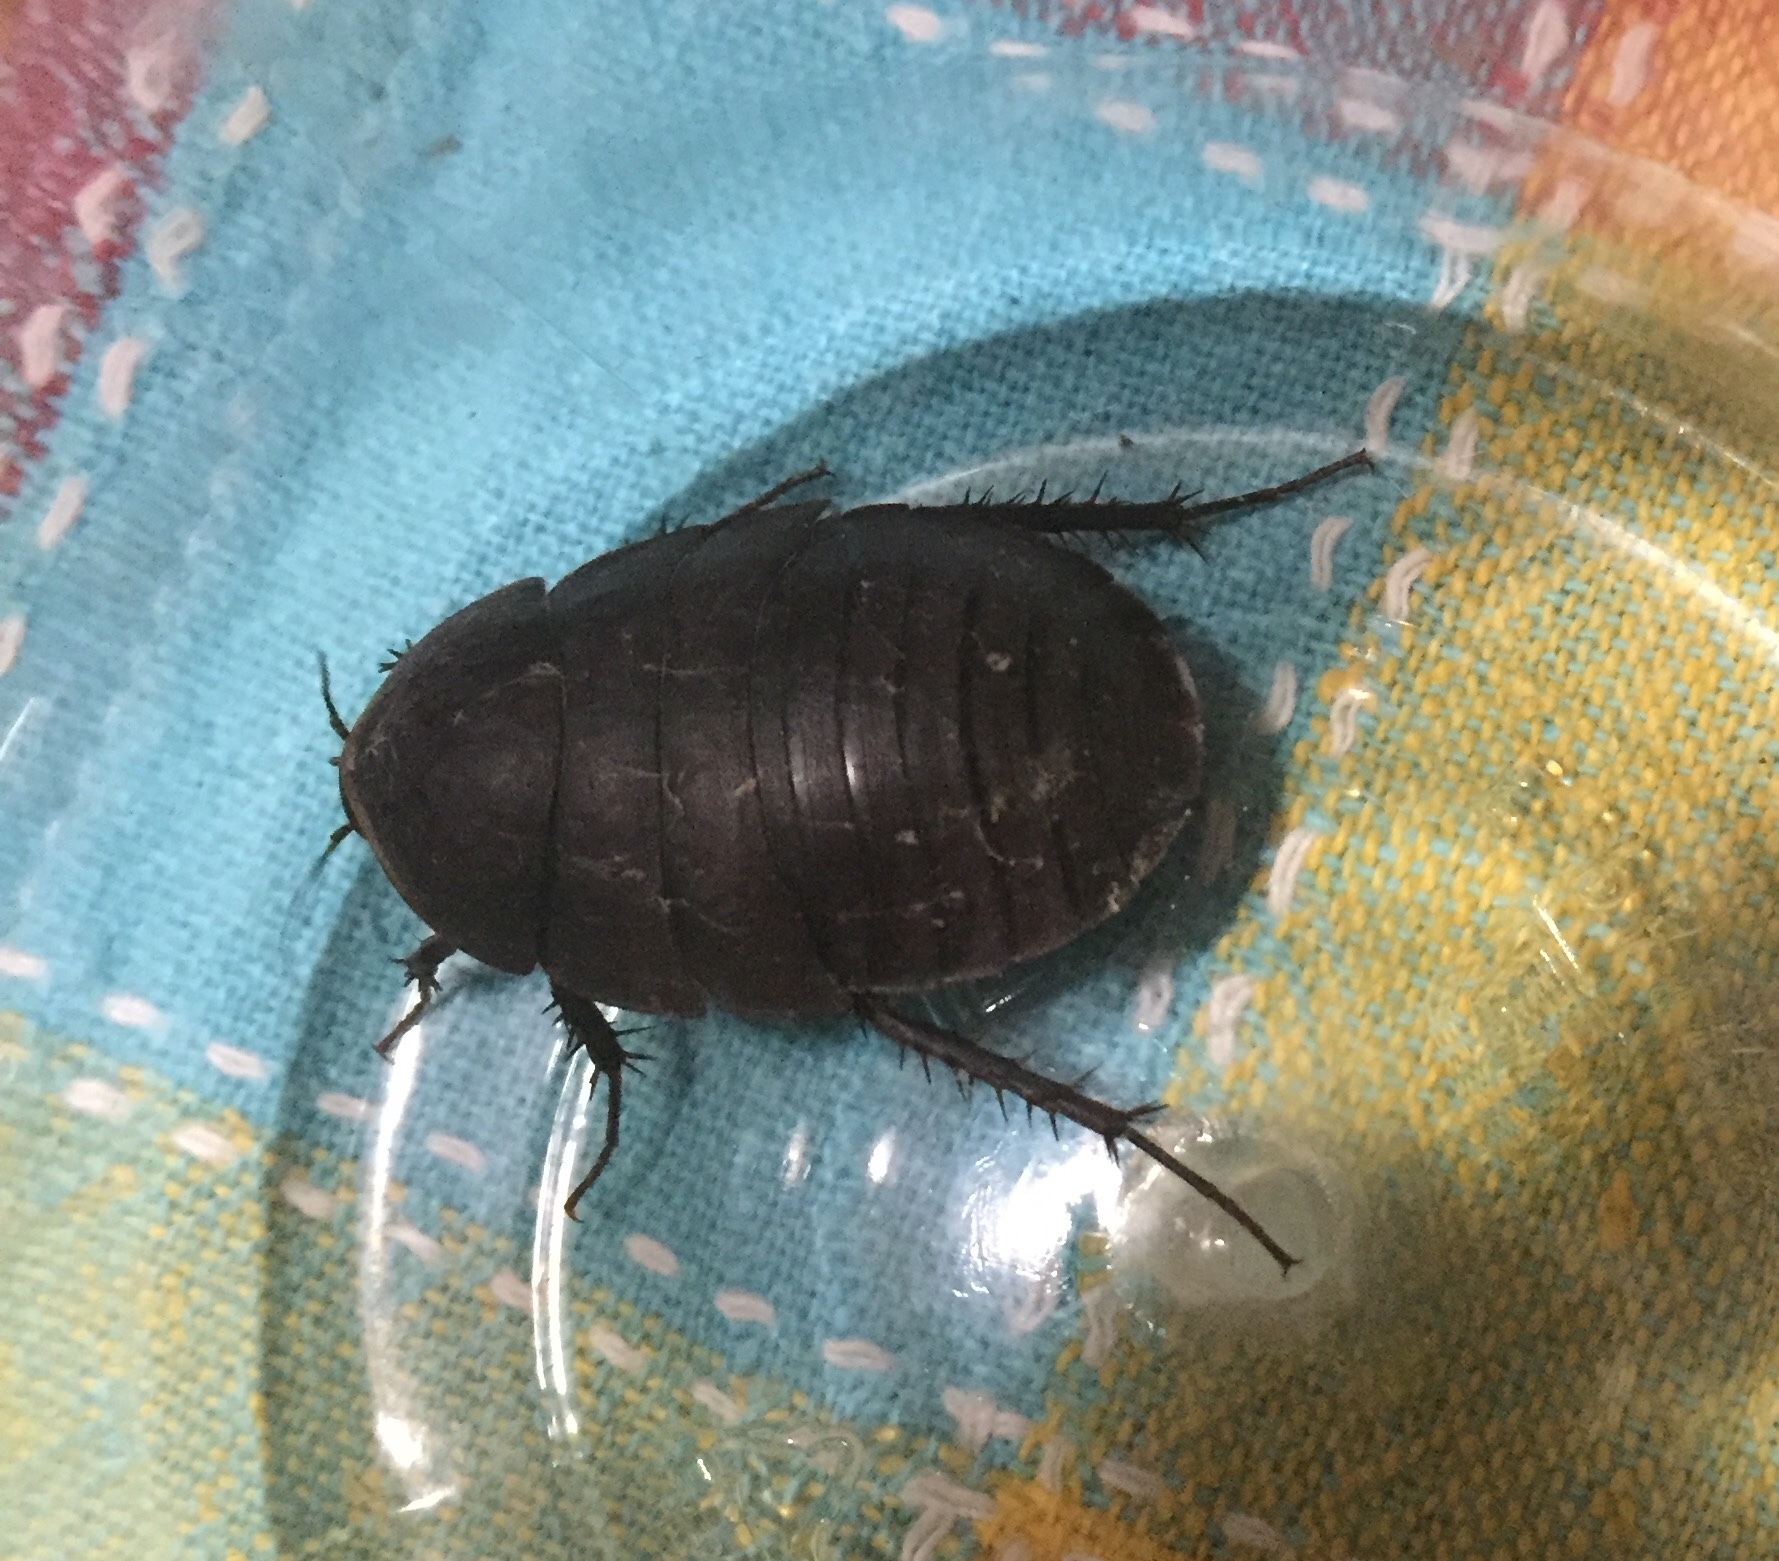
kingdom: Animalia
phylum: Arthropoda
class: Insecta
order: Blattodea
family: Corydiidae
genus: Polyphaga
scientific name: Polyphaga aegyptiaca
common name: Egyptian cockroach
